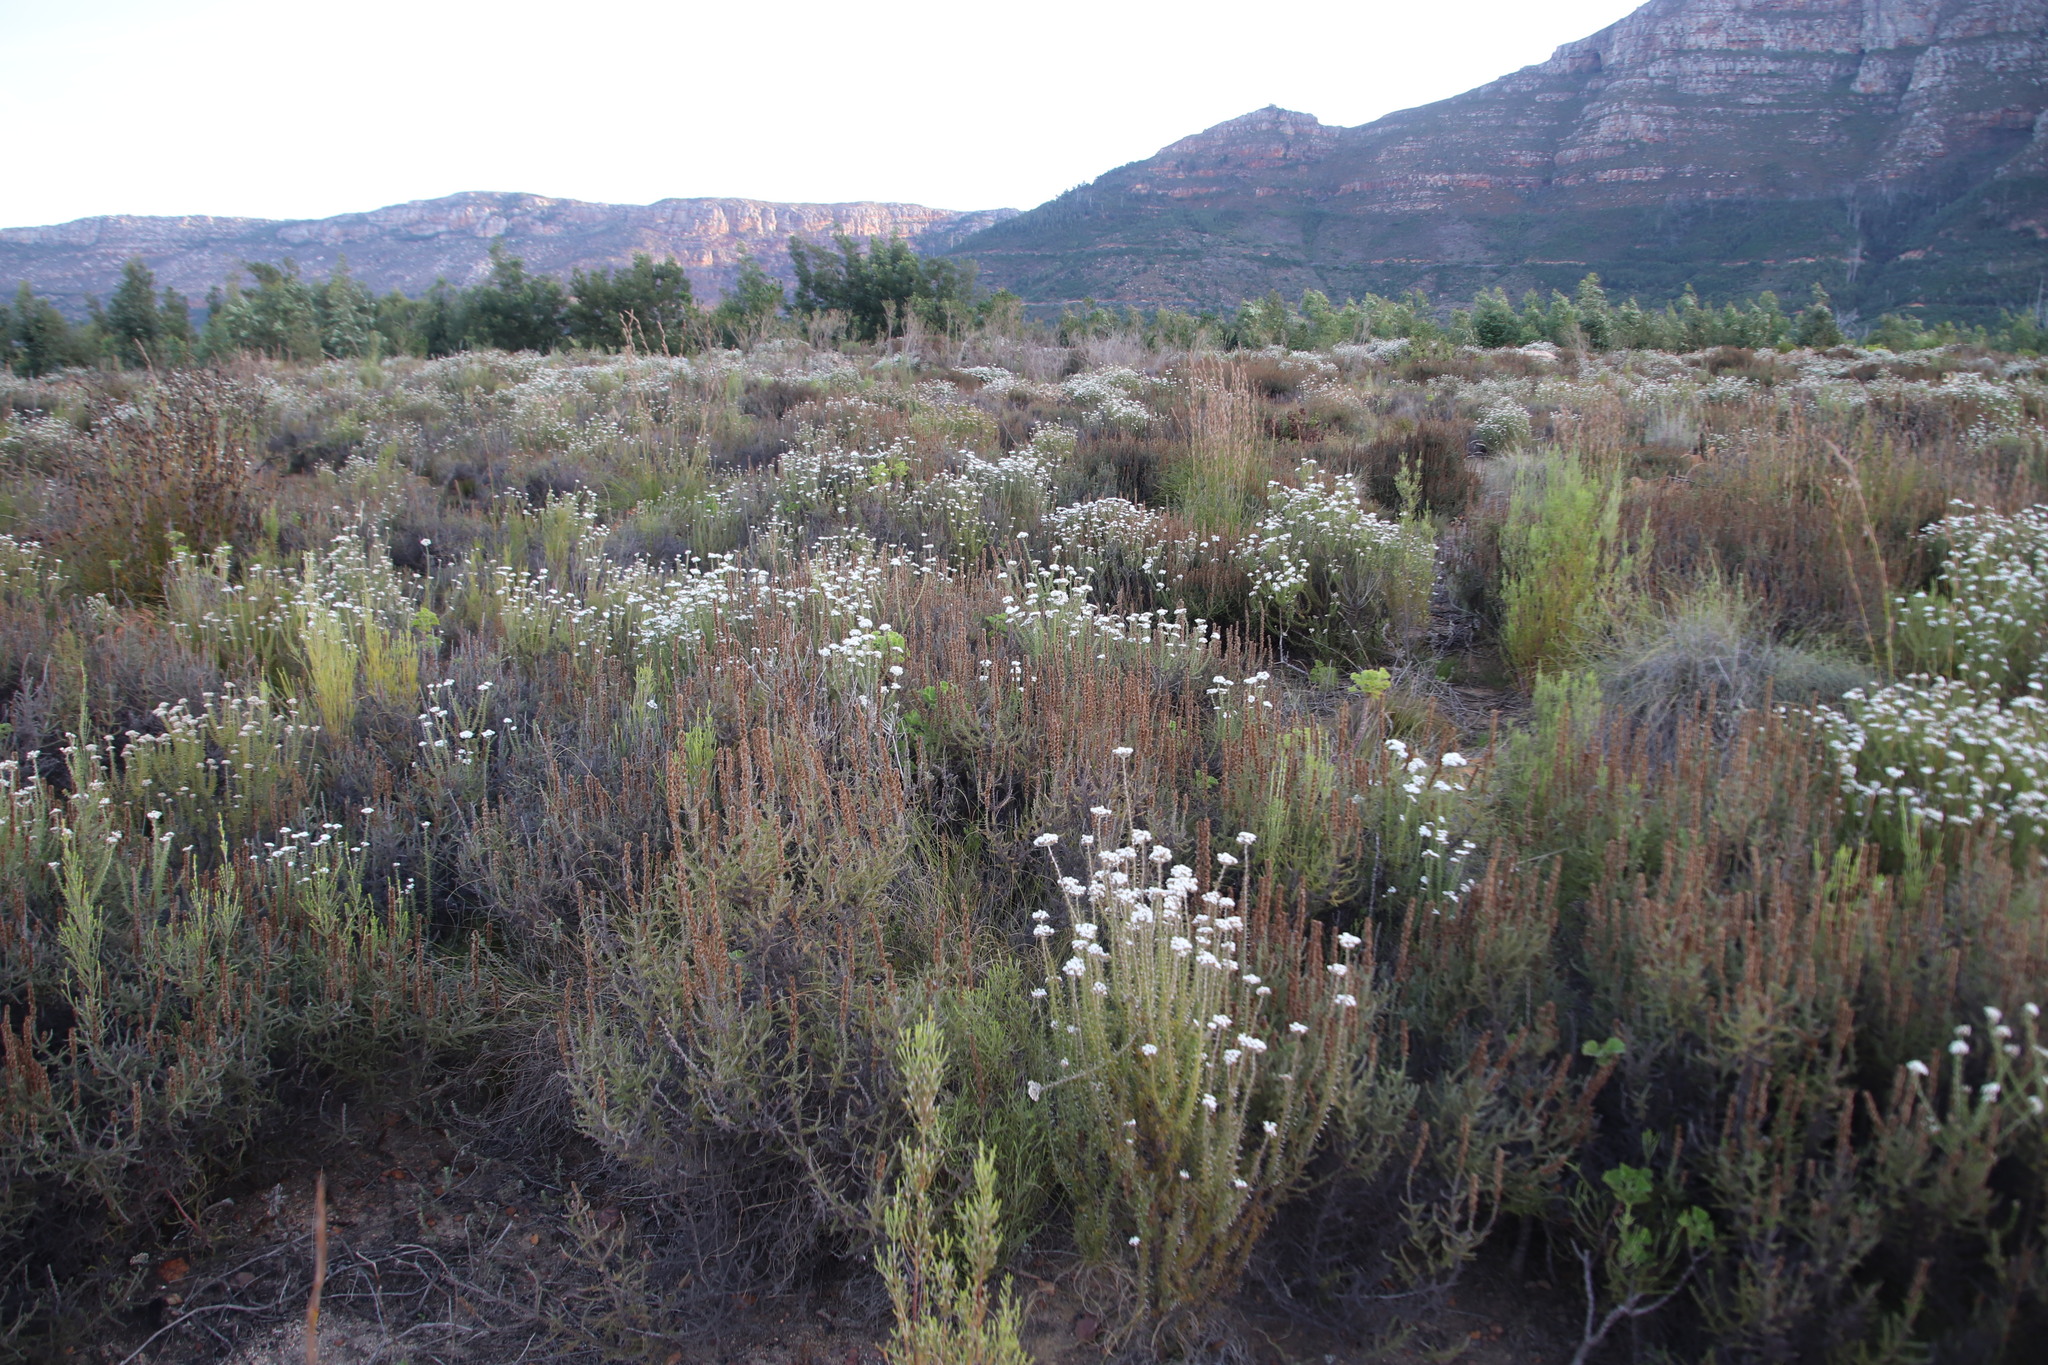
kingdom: Plantae
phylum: Tracheophyta
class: Magnoliopsida
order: Asterales
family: Asteraceae
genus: Seriphium
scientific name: Seriphium cinereum
